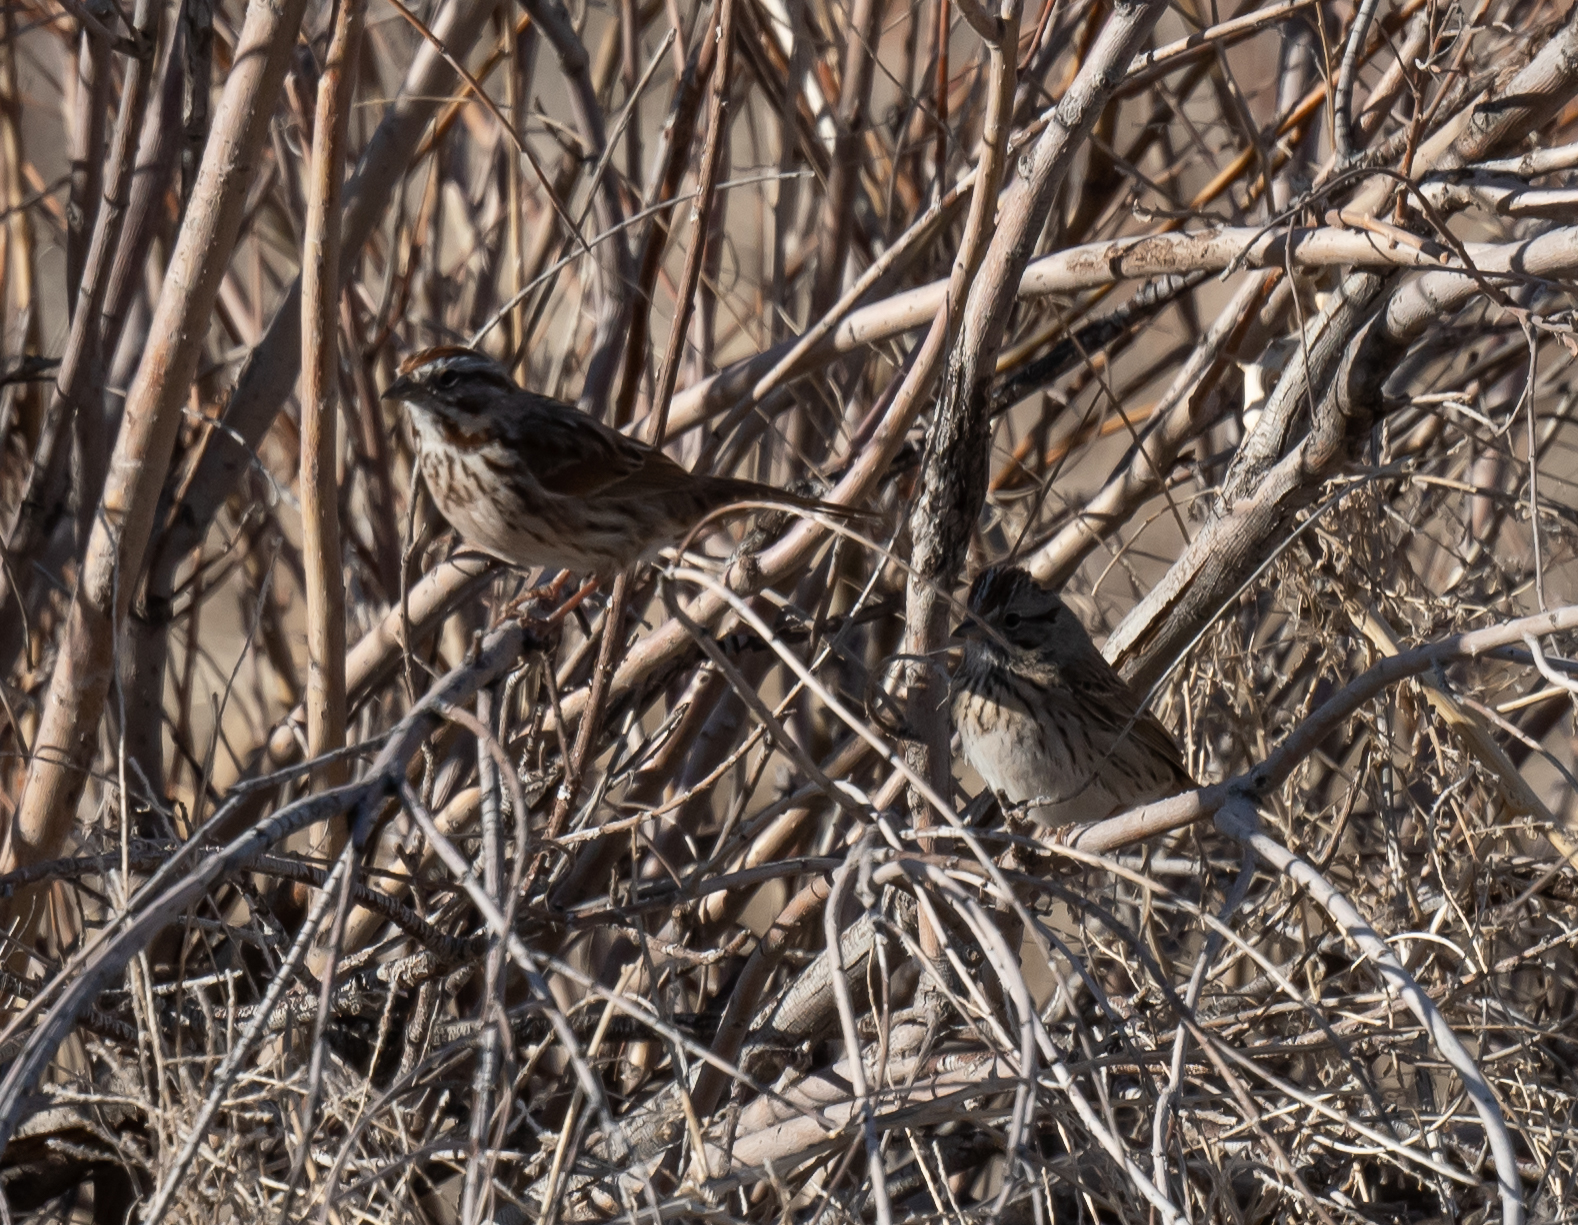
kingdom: Animalia
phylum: Chordata
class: Aves
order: Passeriformes
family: Passerellidae
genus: Melospiza
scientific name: Melospiza lincolnii
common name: Lincoln's sparrow
